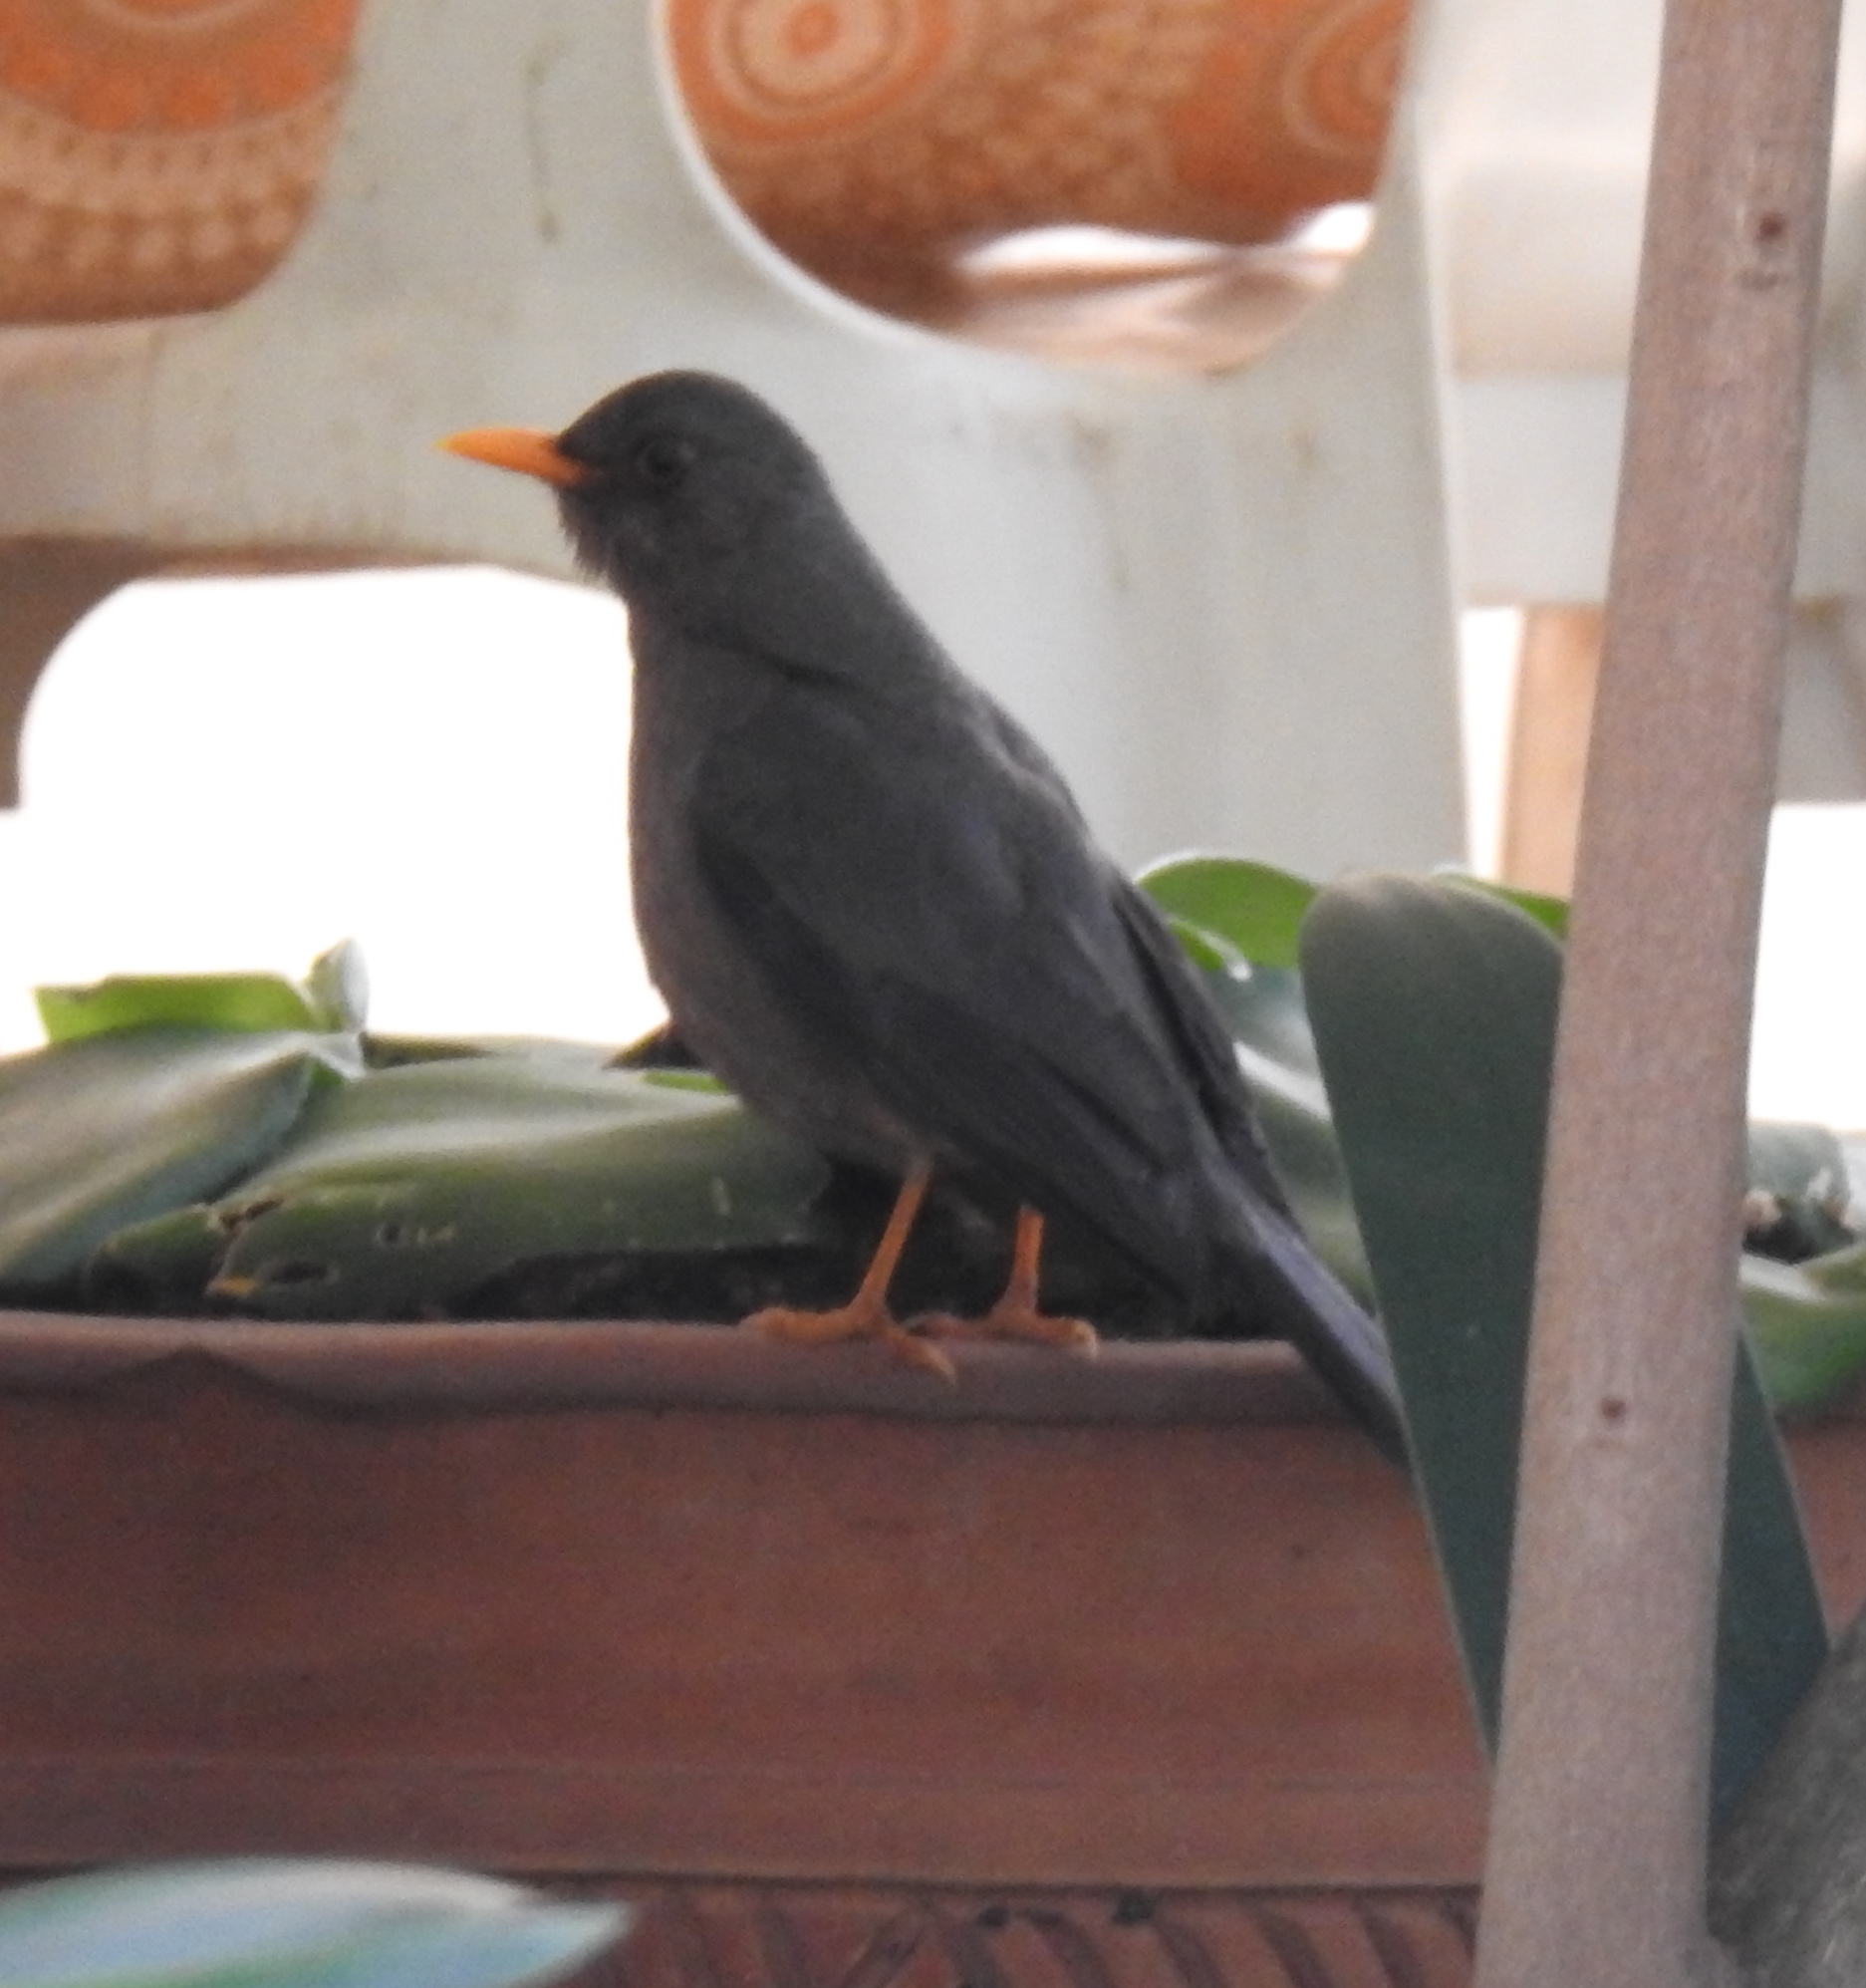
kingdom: Animalia
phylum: Chordata
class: Aves
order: Passeriformes
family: Turdidae
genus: Turdus
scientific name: Turdus smithi
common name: Karoo thrush
